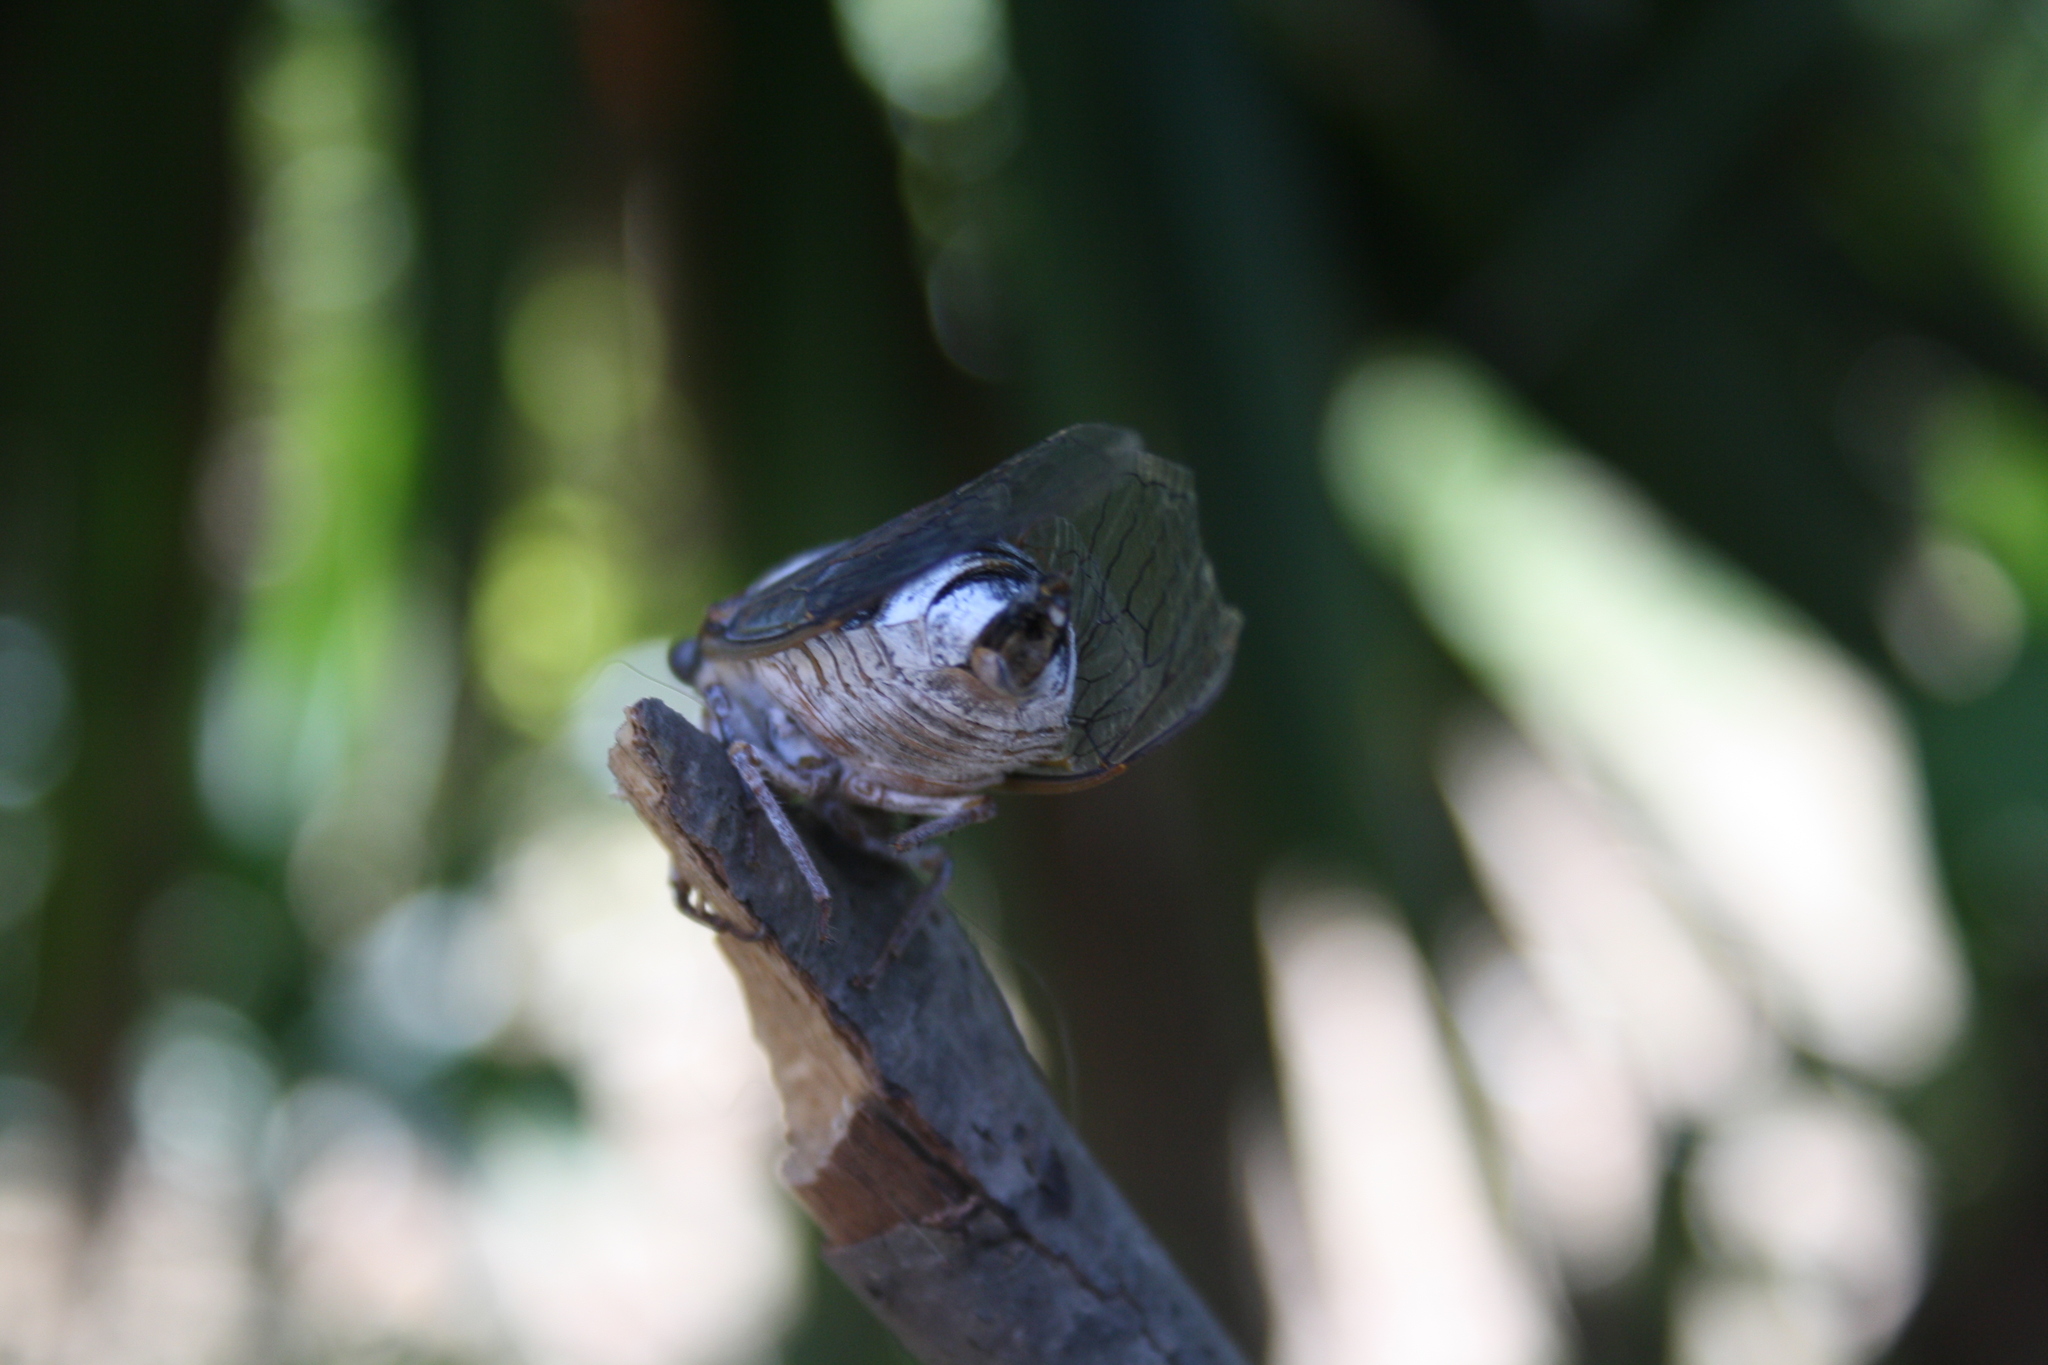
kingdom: Animalia
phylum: Arthropoda
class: Insecta
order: Hemiptera
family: Cicadidae
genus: Lyristes
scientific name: Lyristes plebejus
